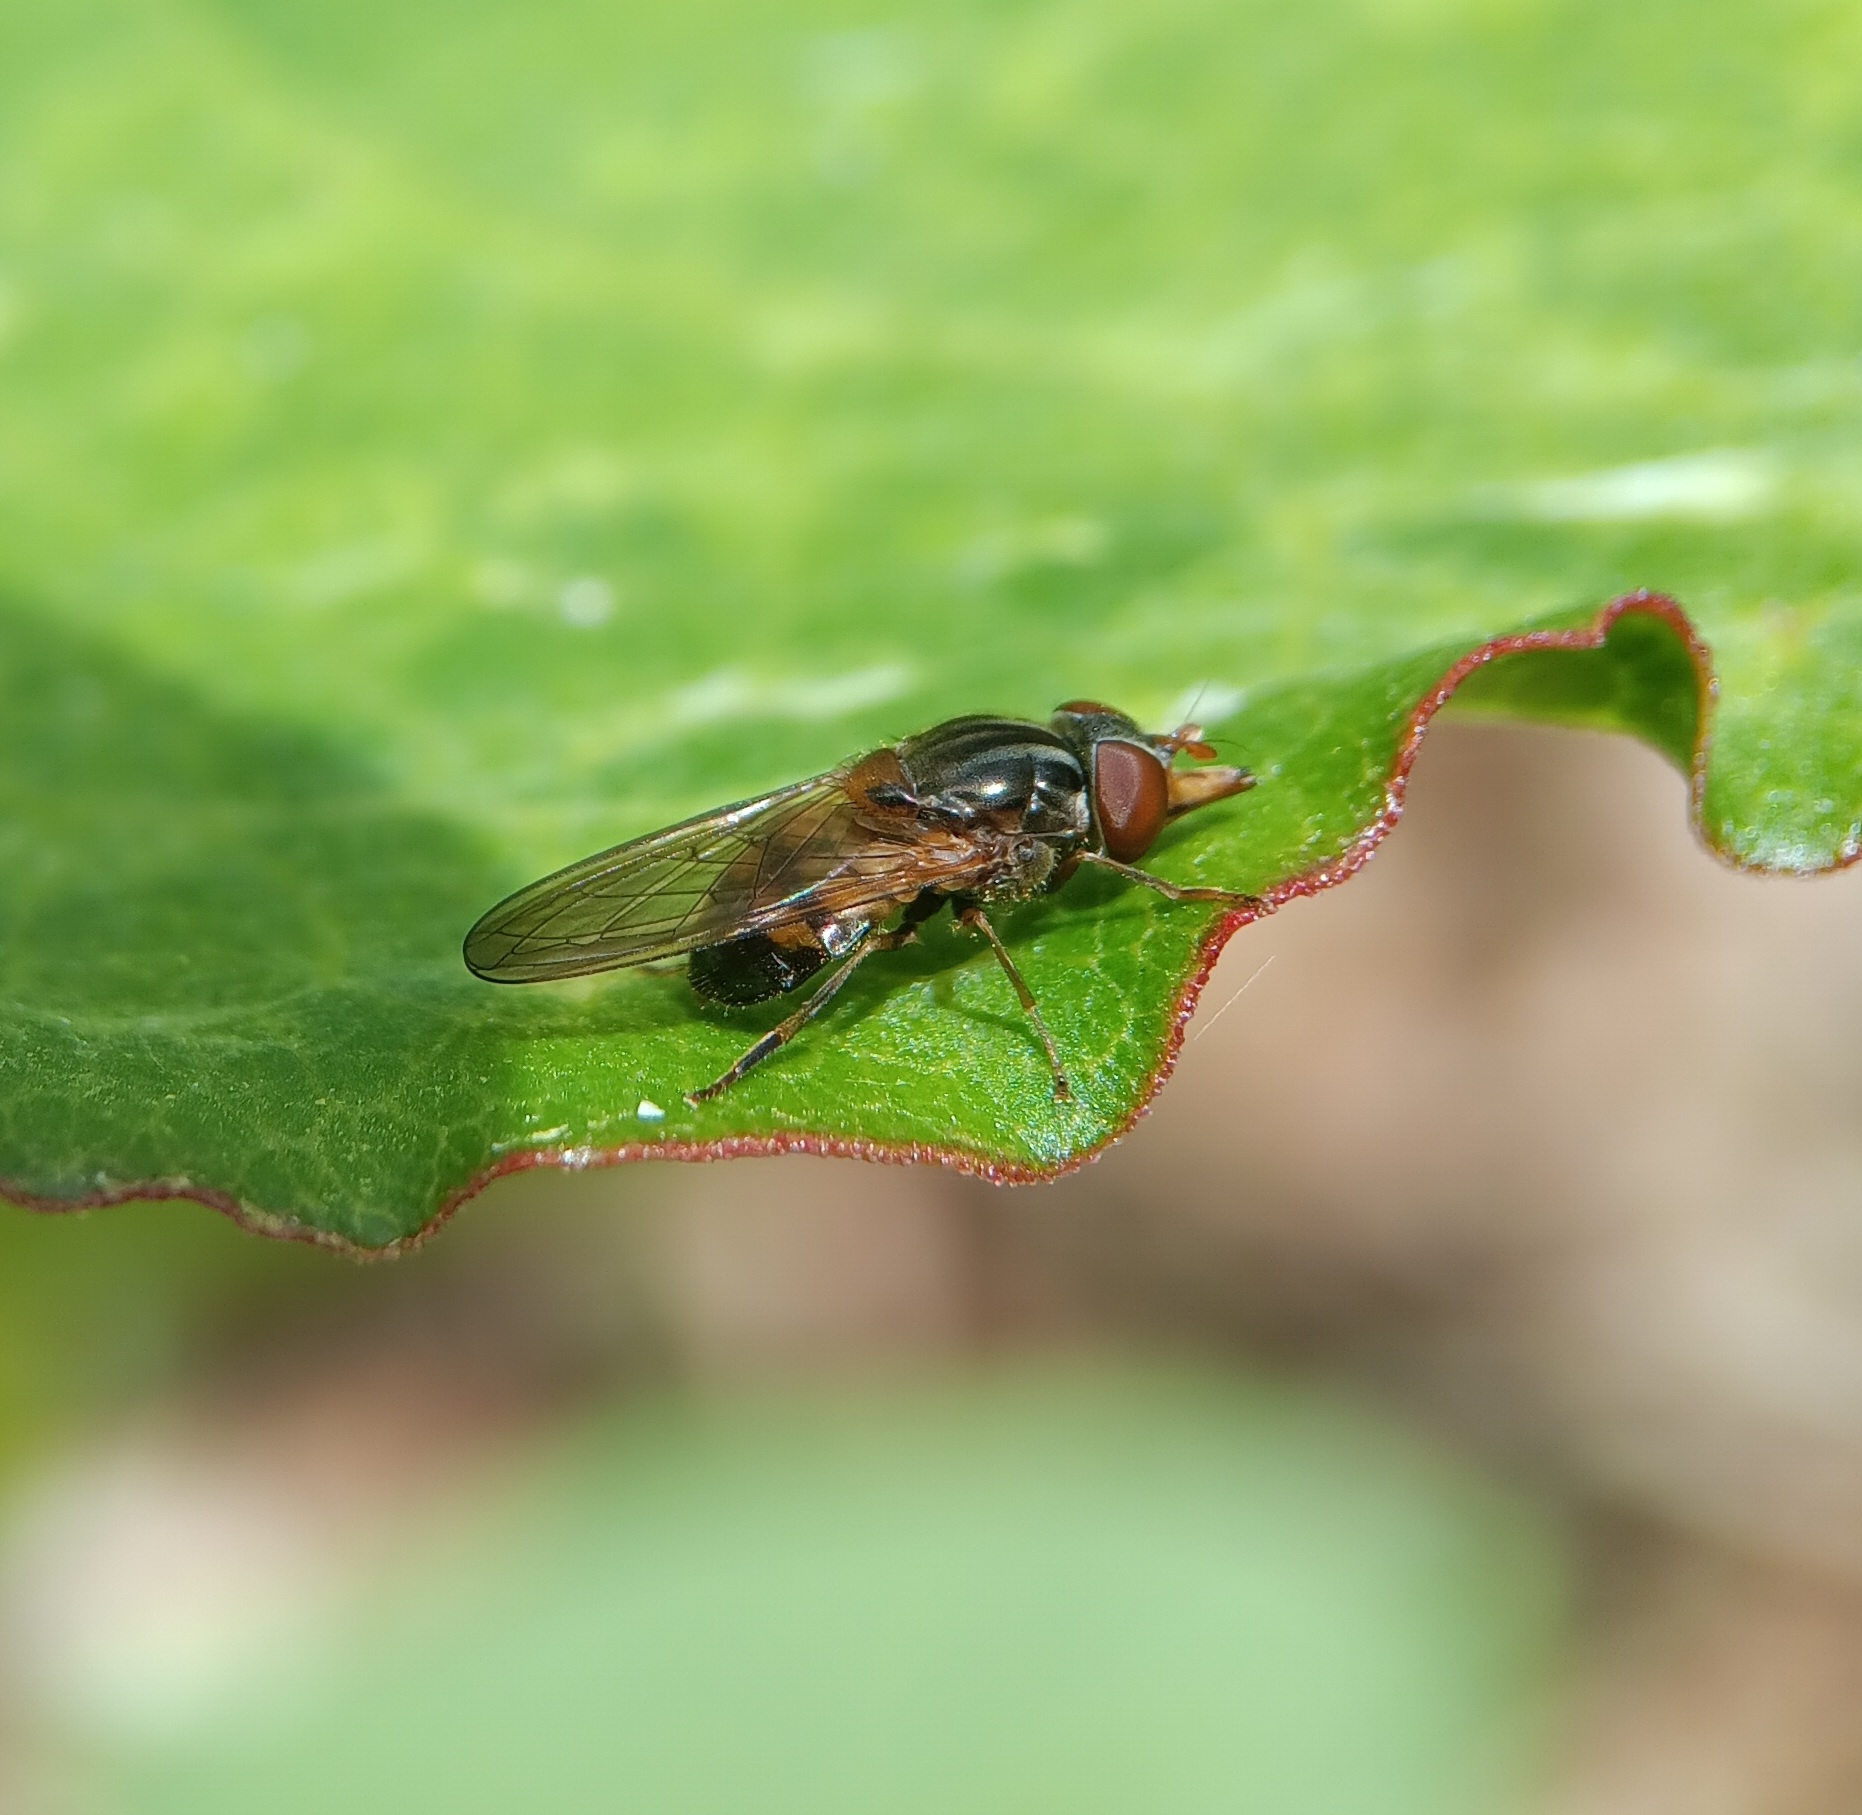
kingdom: Animalia
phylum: Arthropoda
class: Insecta
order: Diptera
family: Syrphidae
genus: Rhingia
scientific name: Rhingia nasica
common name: American snout fly
